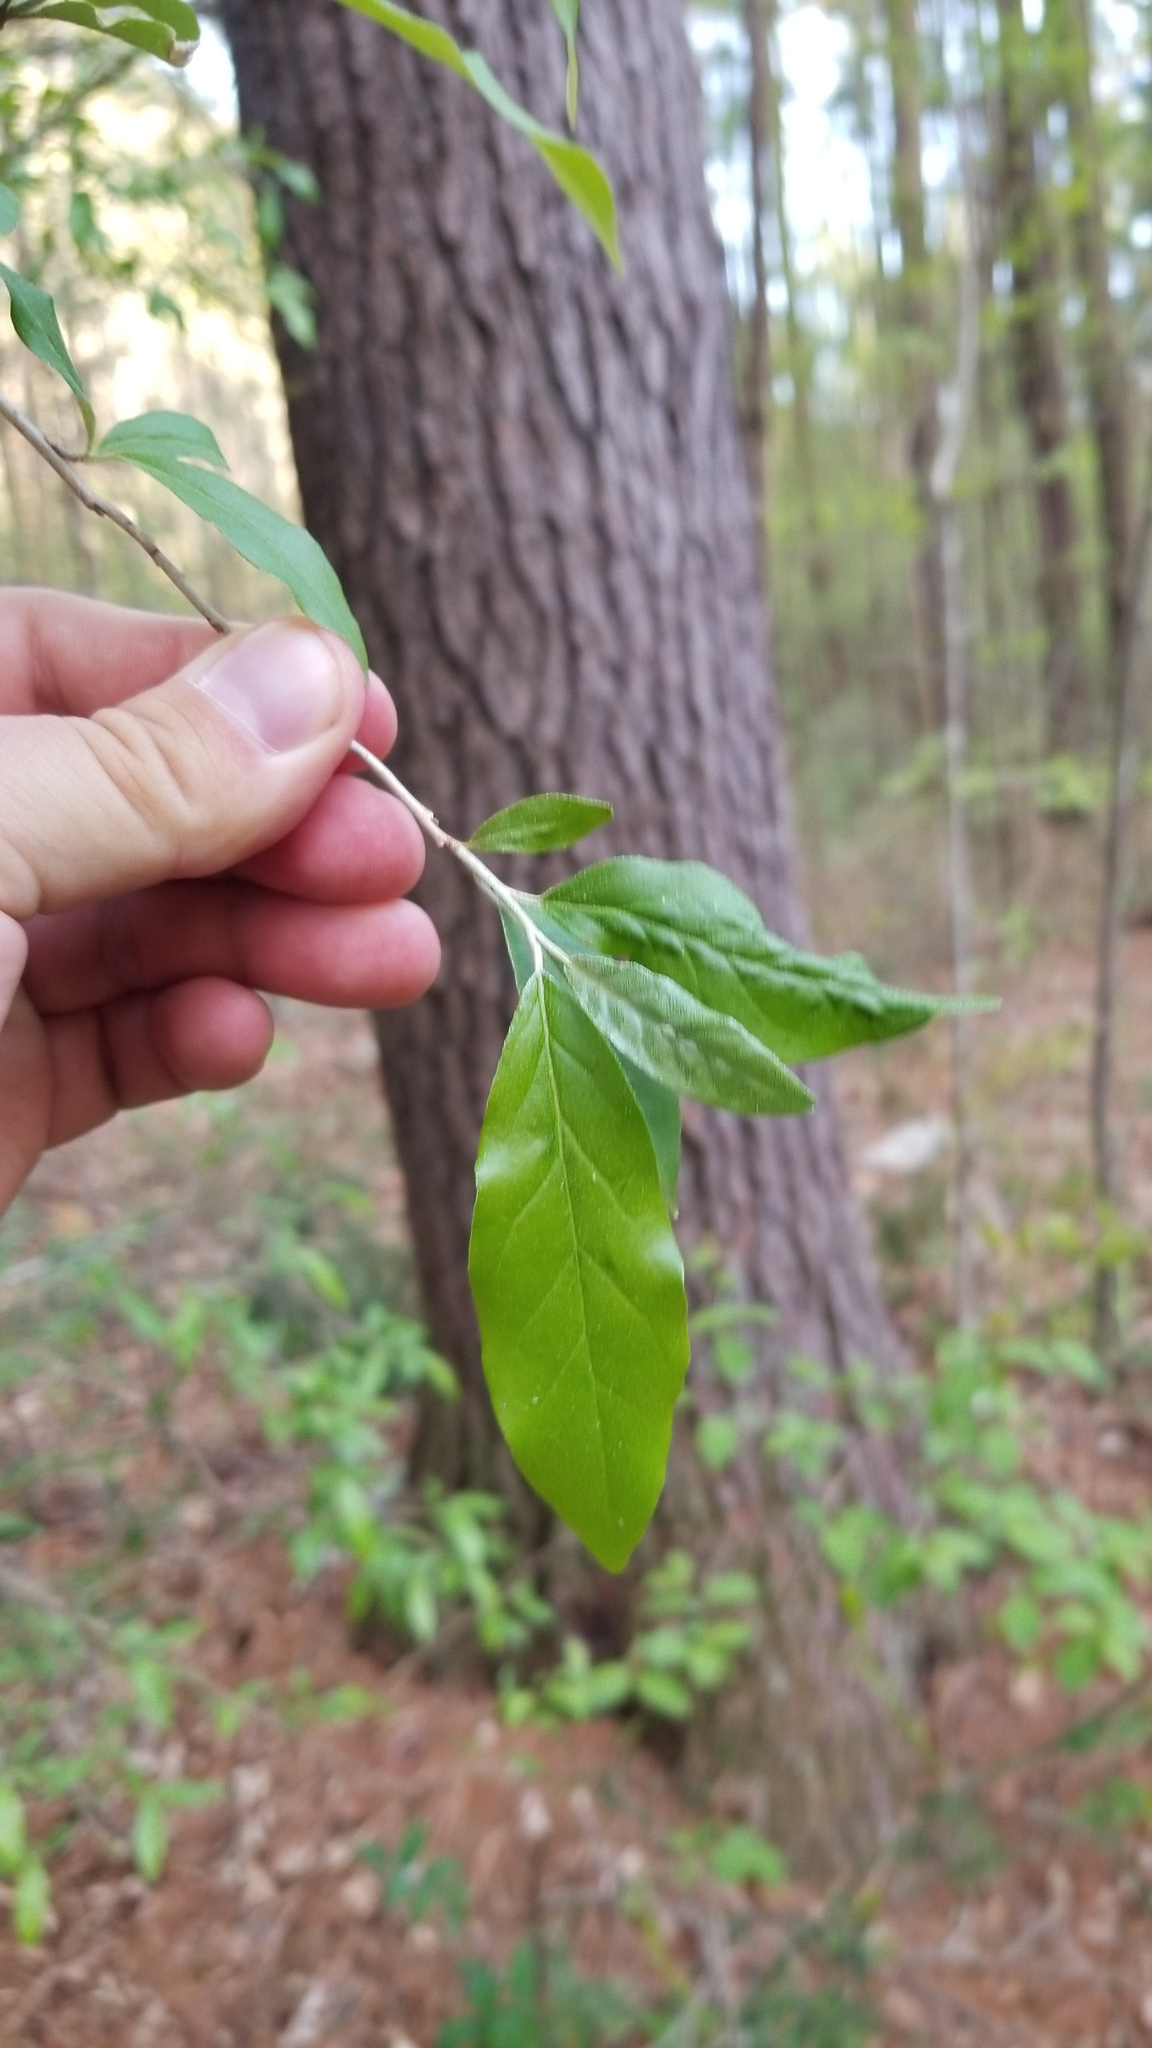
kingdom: Plantae
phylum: Tracheophyta
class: Magnoliopsida
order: Rosales
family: Elaeagnaceae
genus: Elaeagnus
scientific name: Elaeagnus umbellata
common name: Autumn olive
